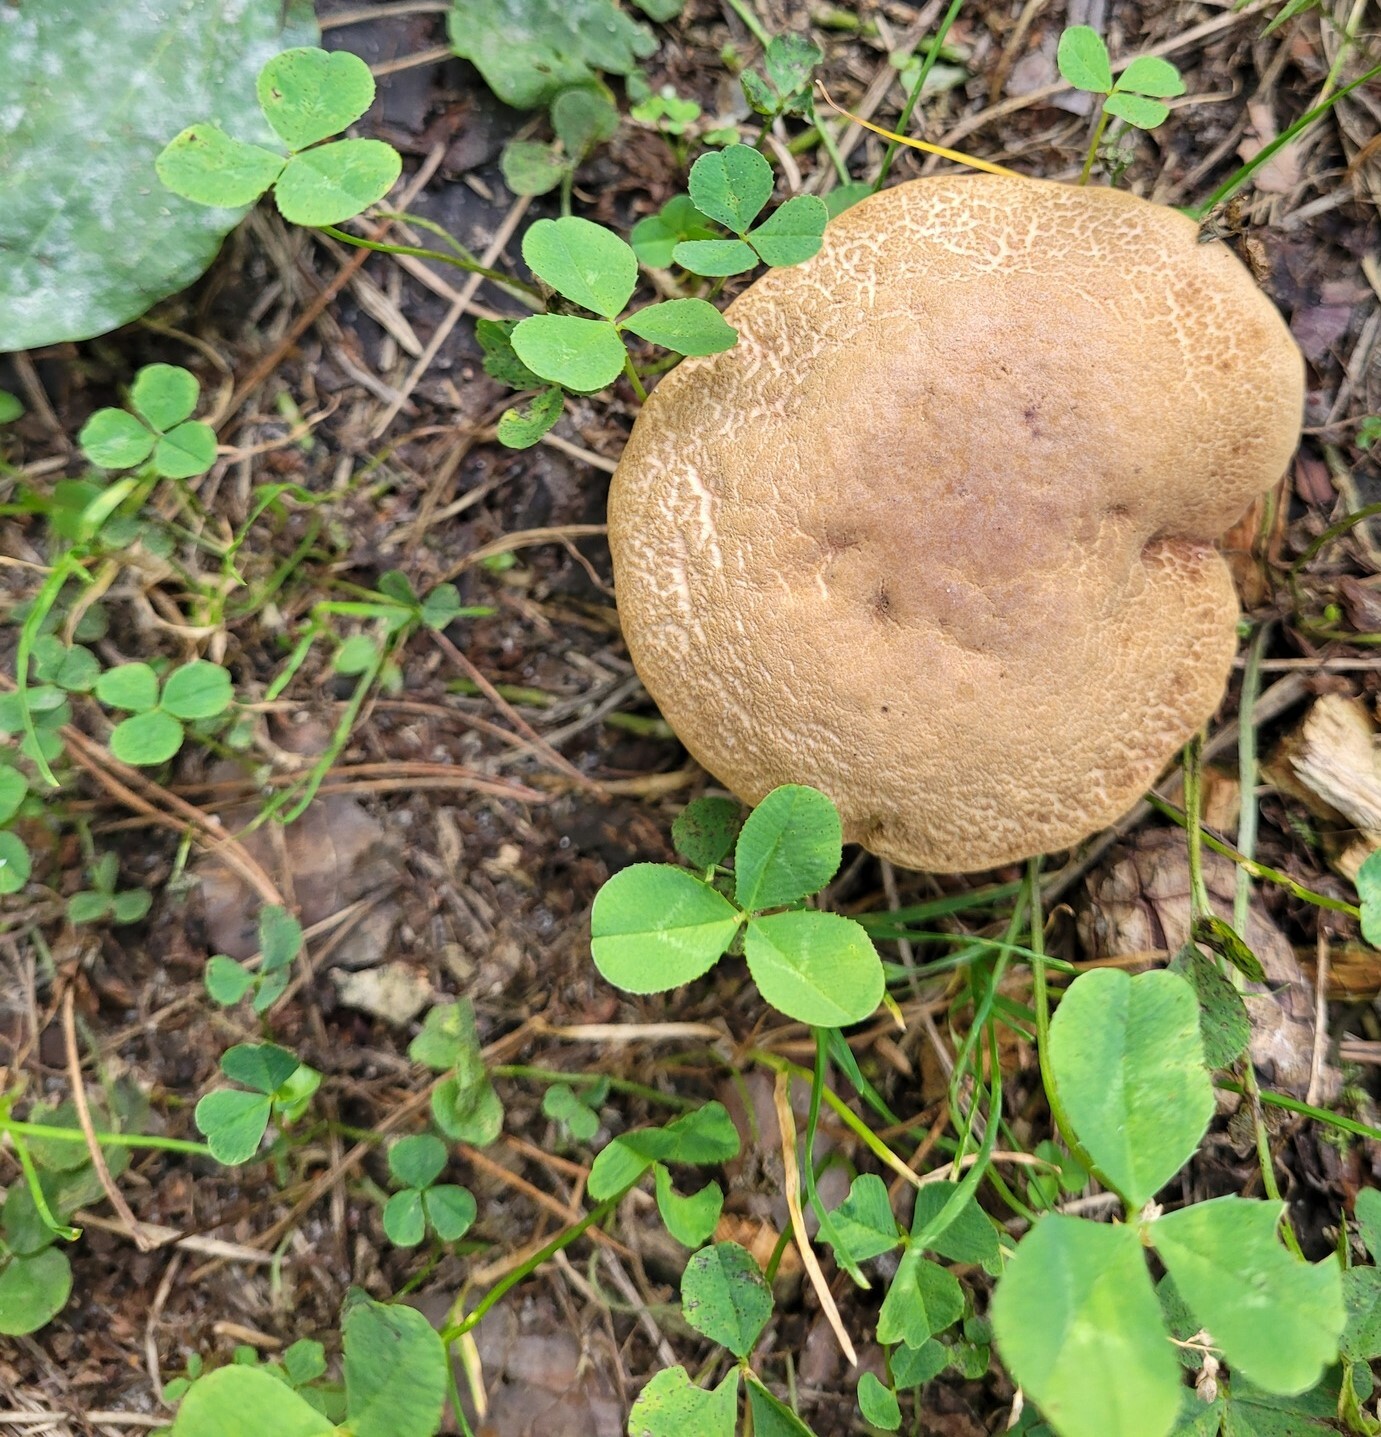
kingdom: Plantae
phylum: Tracheophyta
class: Magnoliopsida
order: Fabales
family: Fabaceae
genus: Trifolium
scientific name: Trifolium repens
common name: White clover
